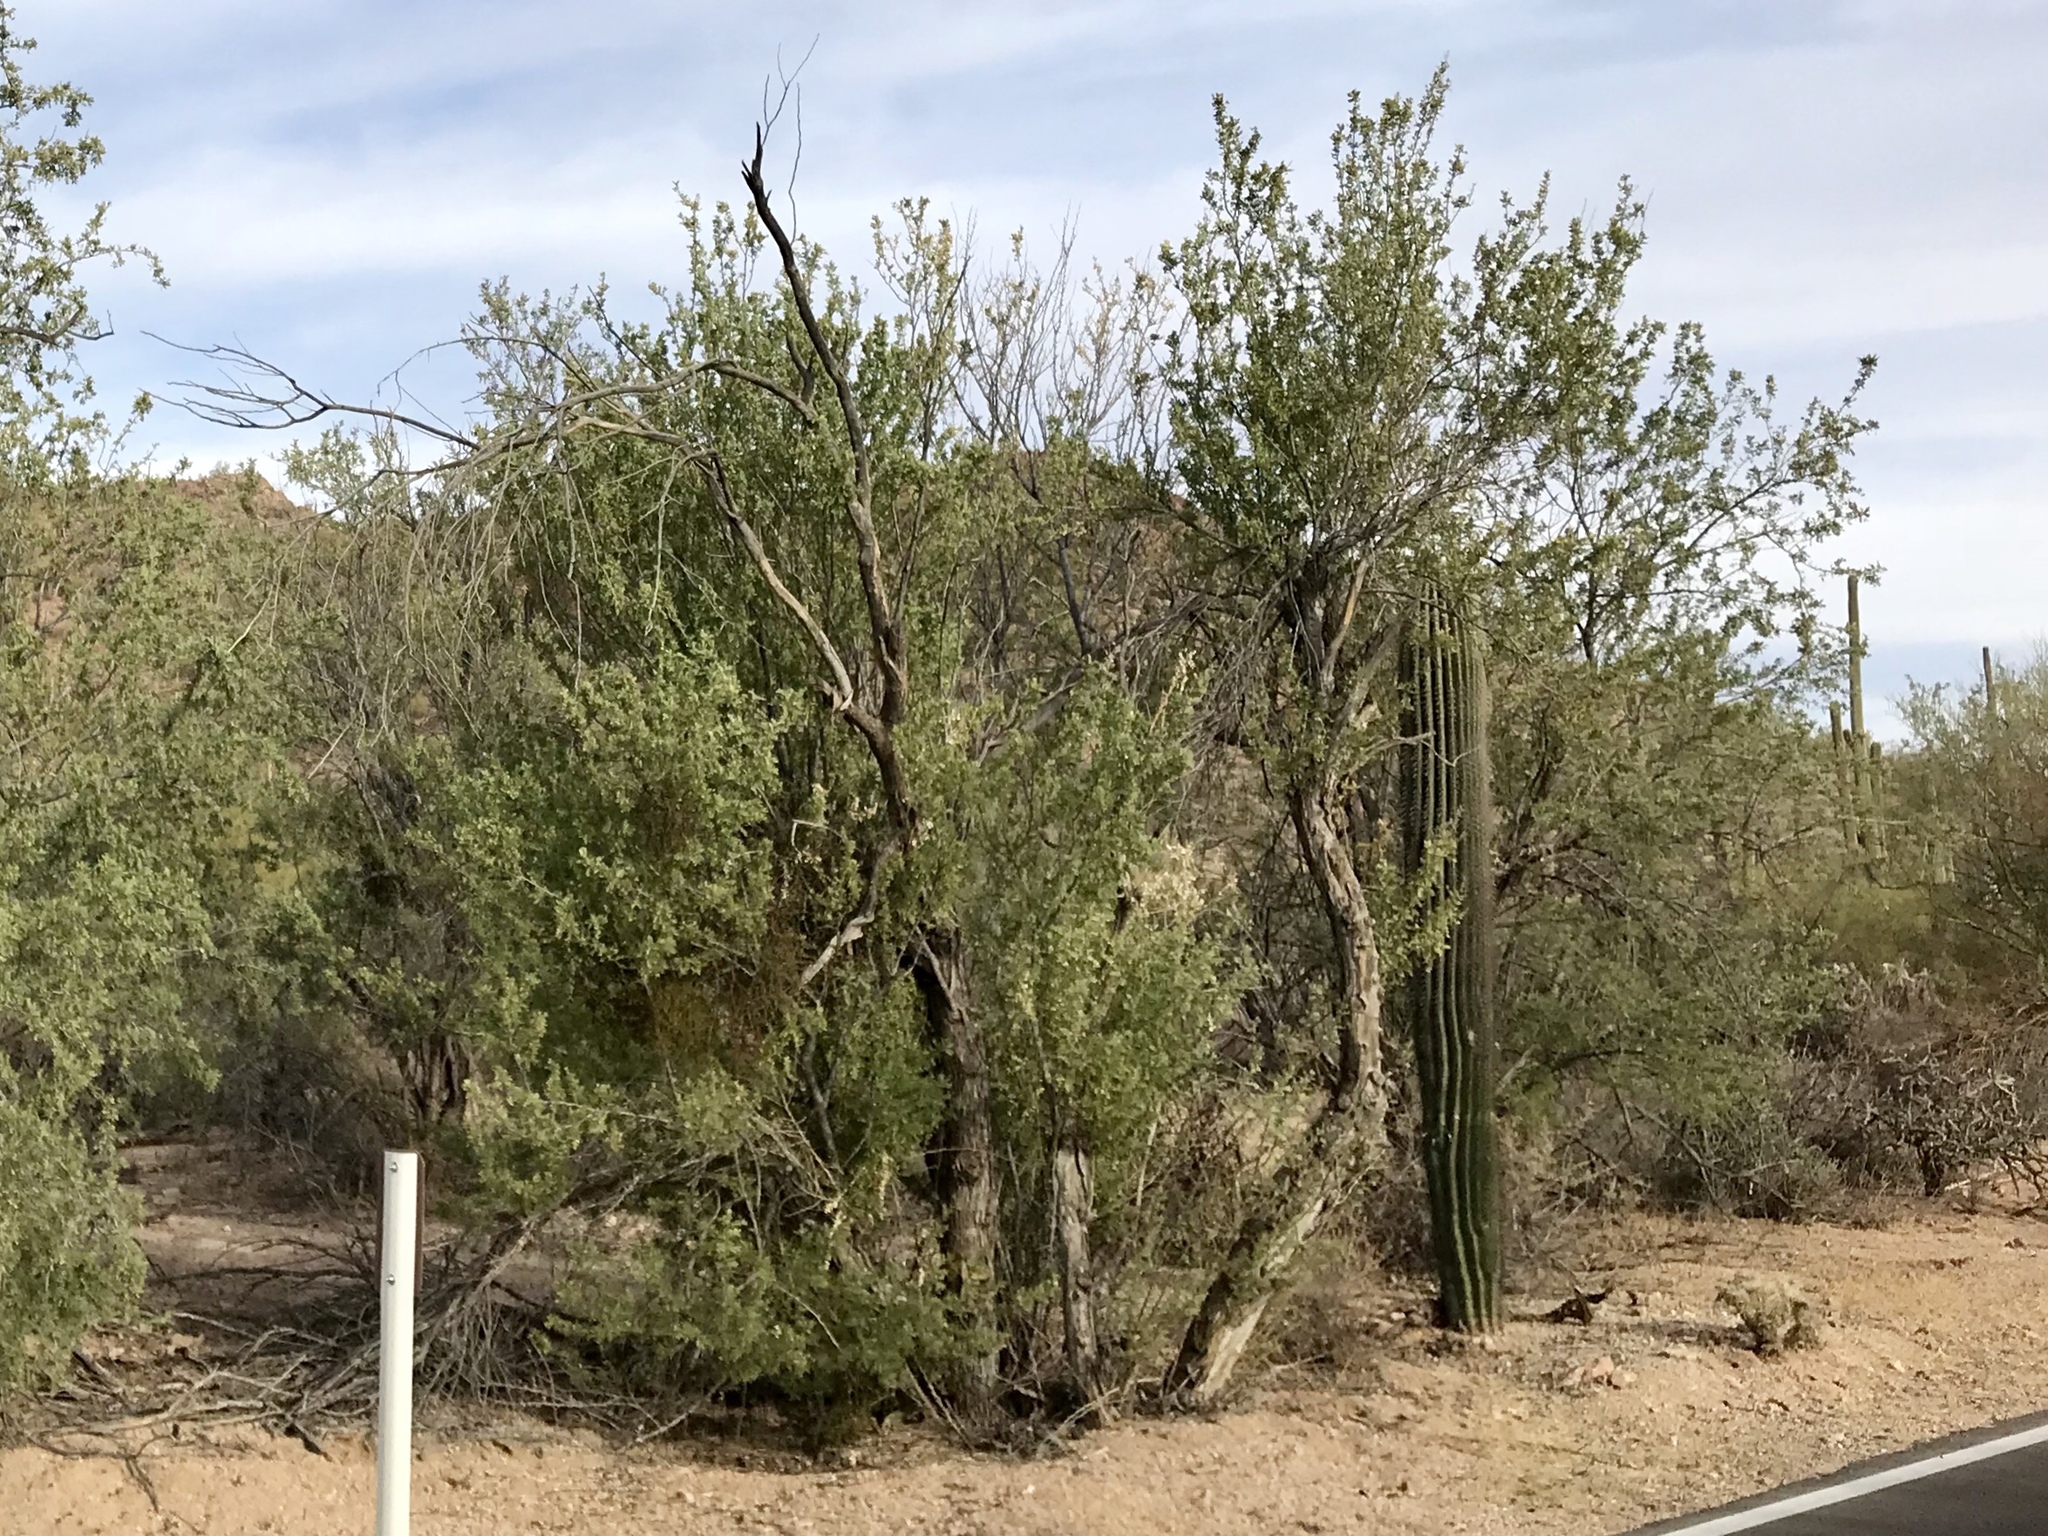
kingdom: Plantae
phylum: Tracheophyta
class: Magnoliopsida
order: Fabales
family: Fabaceae
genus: Olneya
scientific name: Olneya tesota
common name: Desert ironwood
